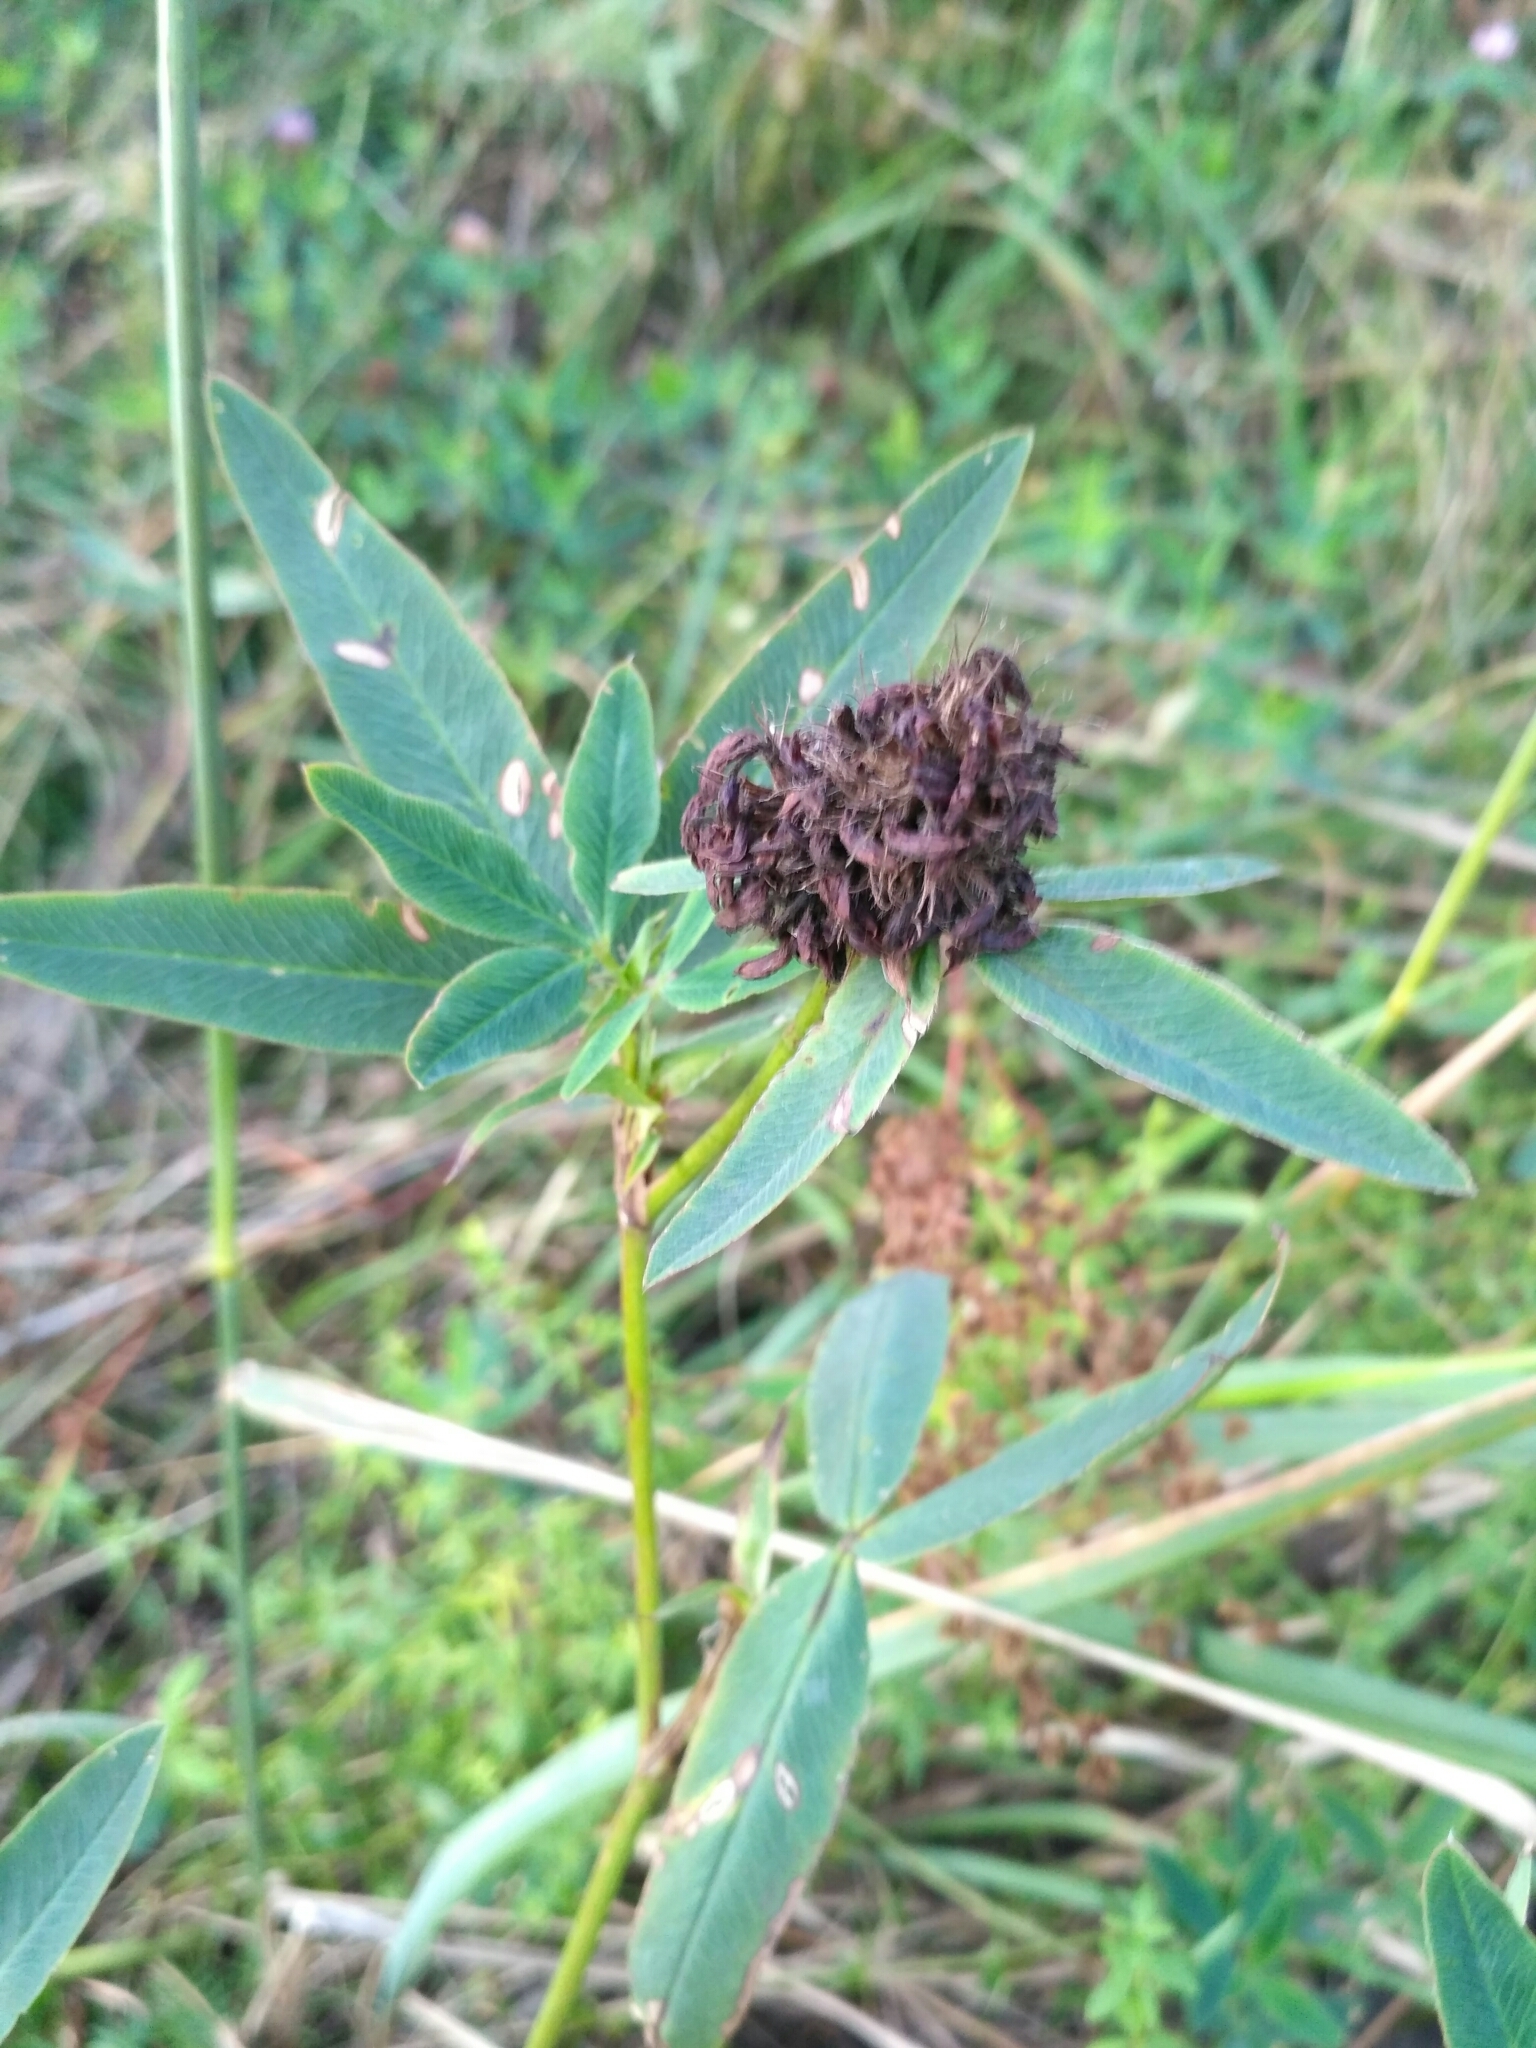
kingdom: Plantae
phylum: Tracheophyta
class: Magnoliopsida
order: Fabales
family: Fabaceae
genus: Trifolium
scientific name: Trifolium alpestre
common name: Owl-head clover
